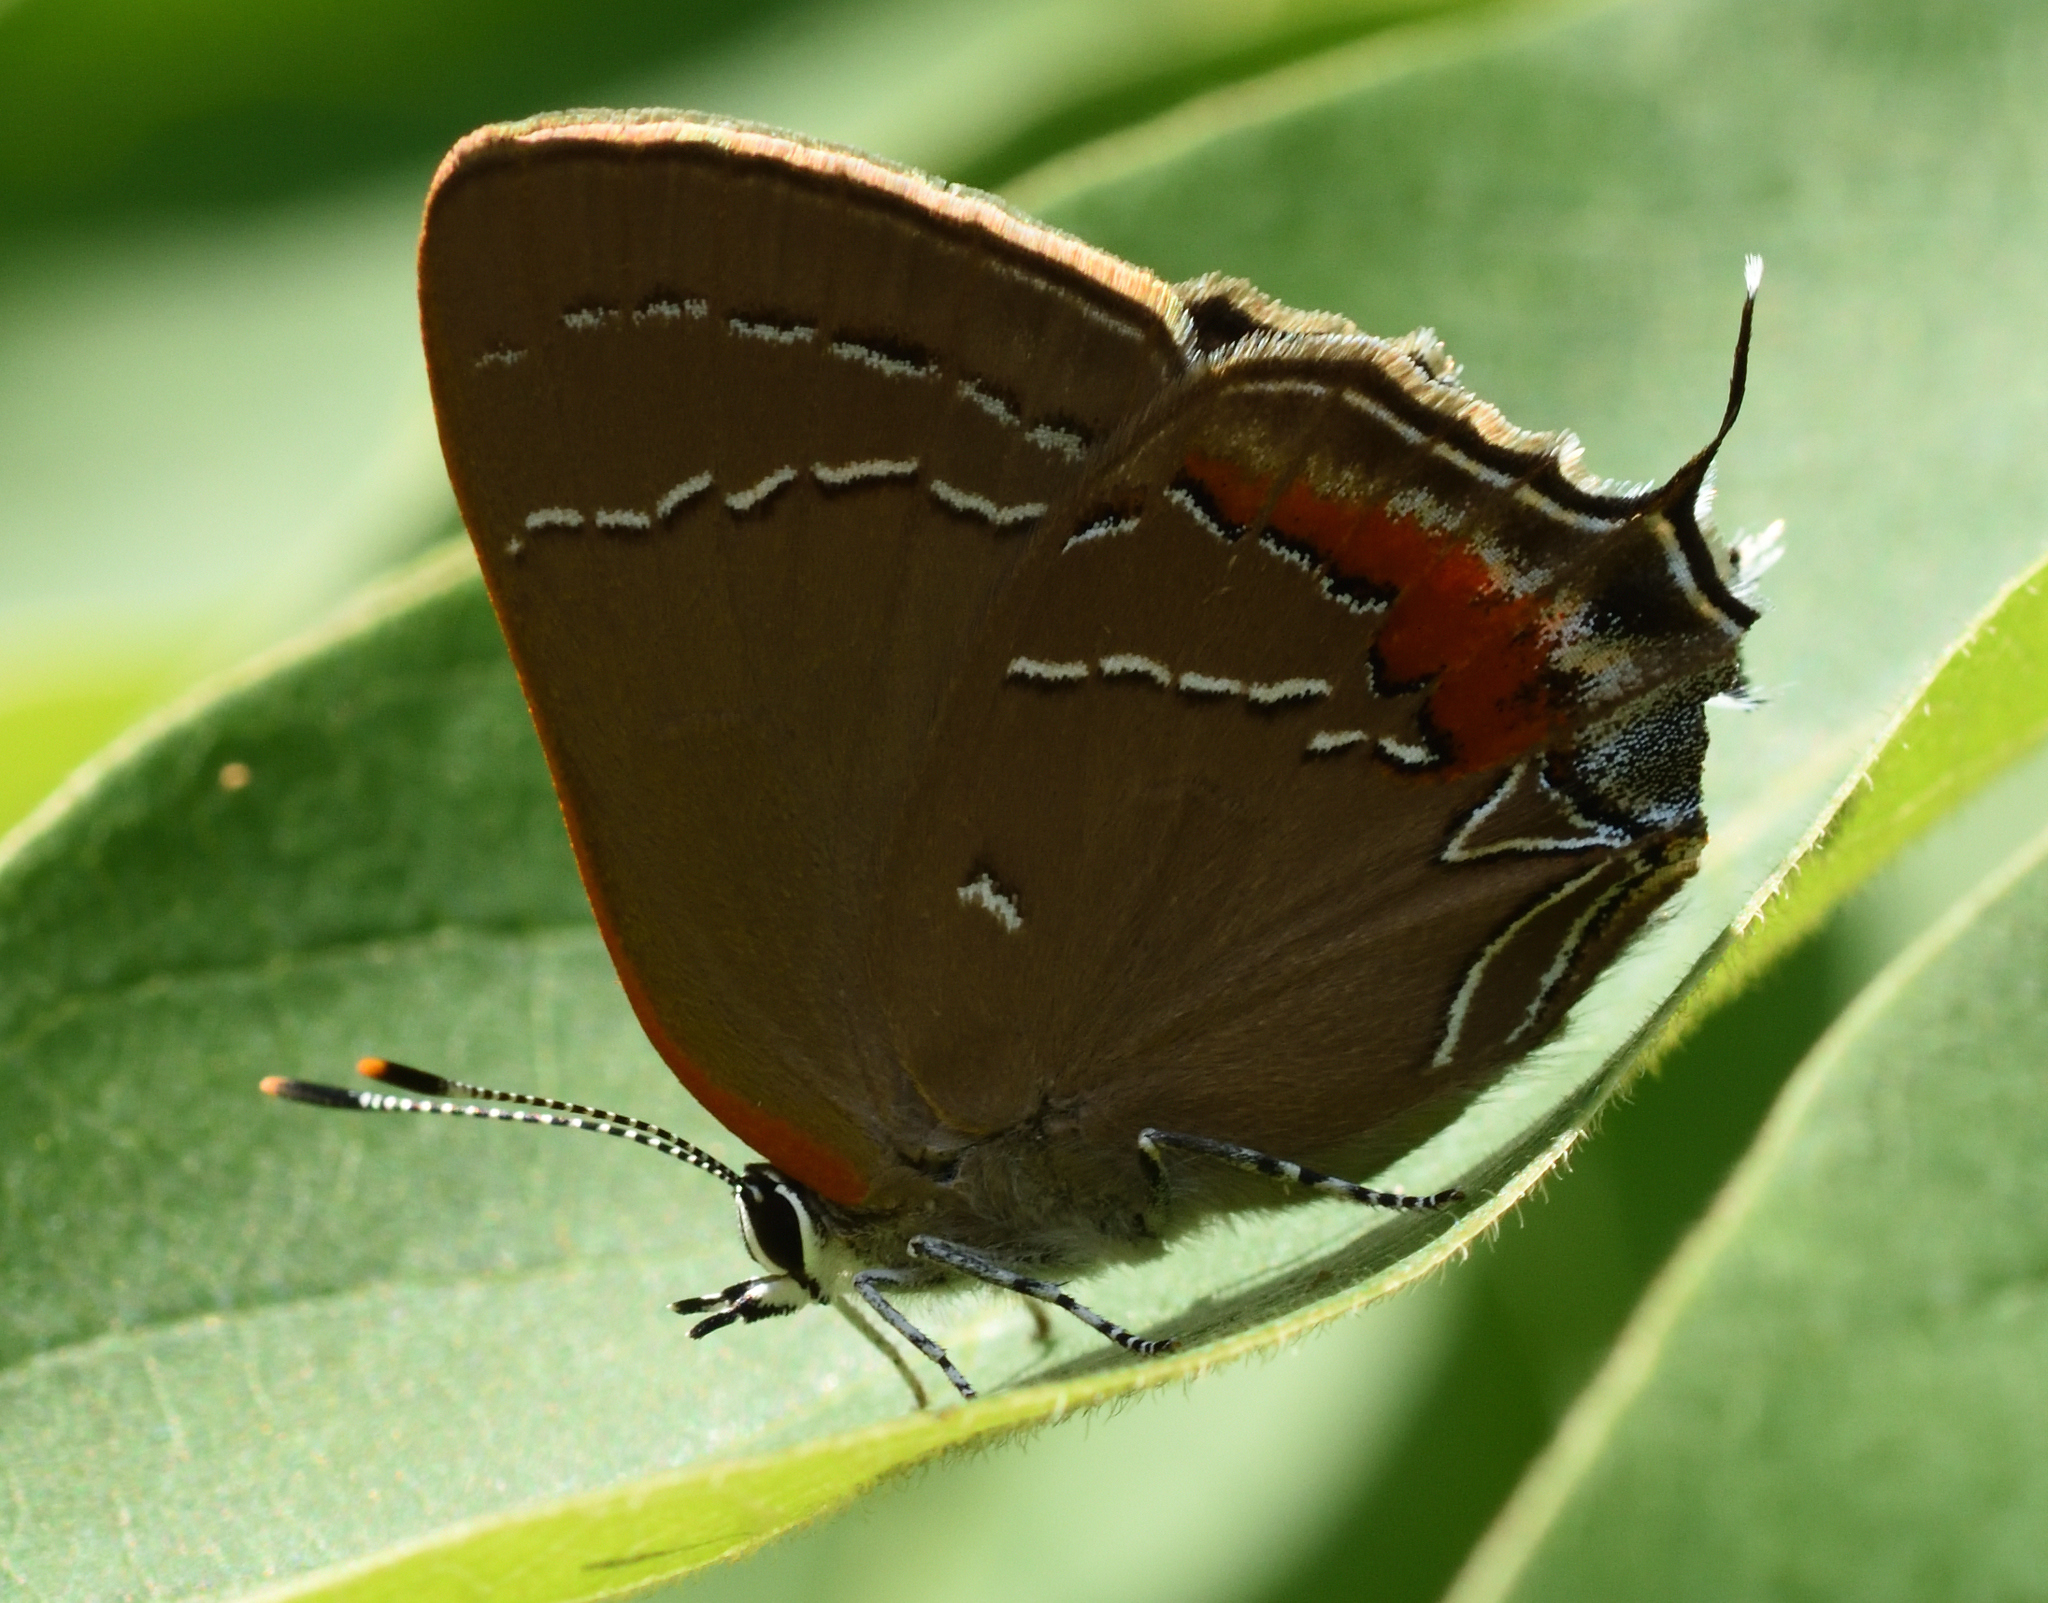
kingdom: Animalia
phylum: Arthropoda
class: Insecta
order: Lepidoptera
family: Lycaenidae
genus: Fixsenia
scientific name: Fixsenia favonius
